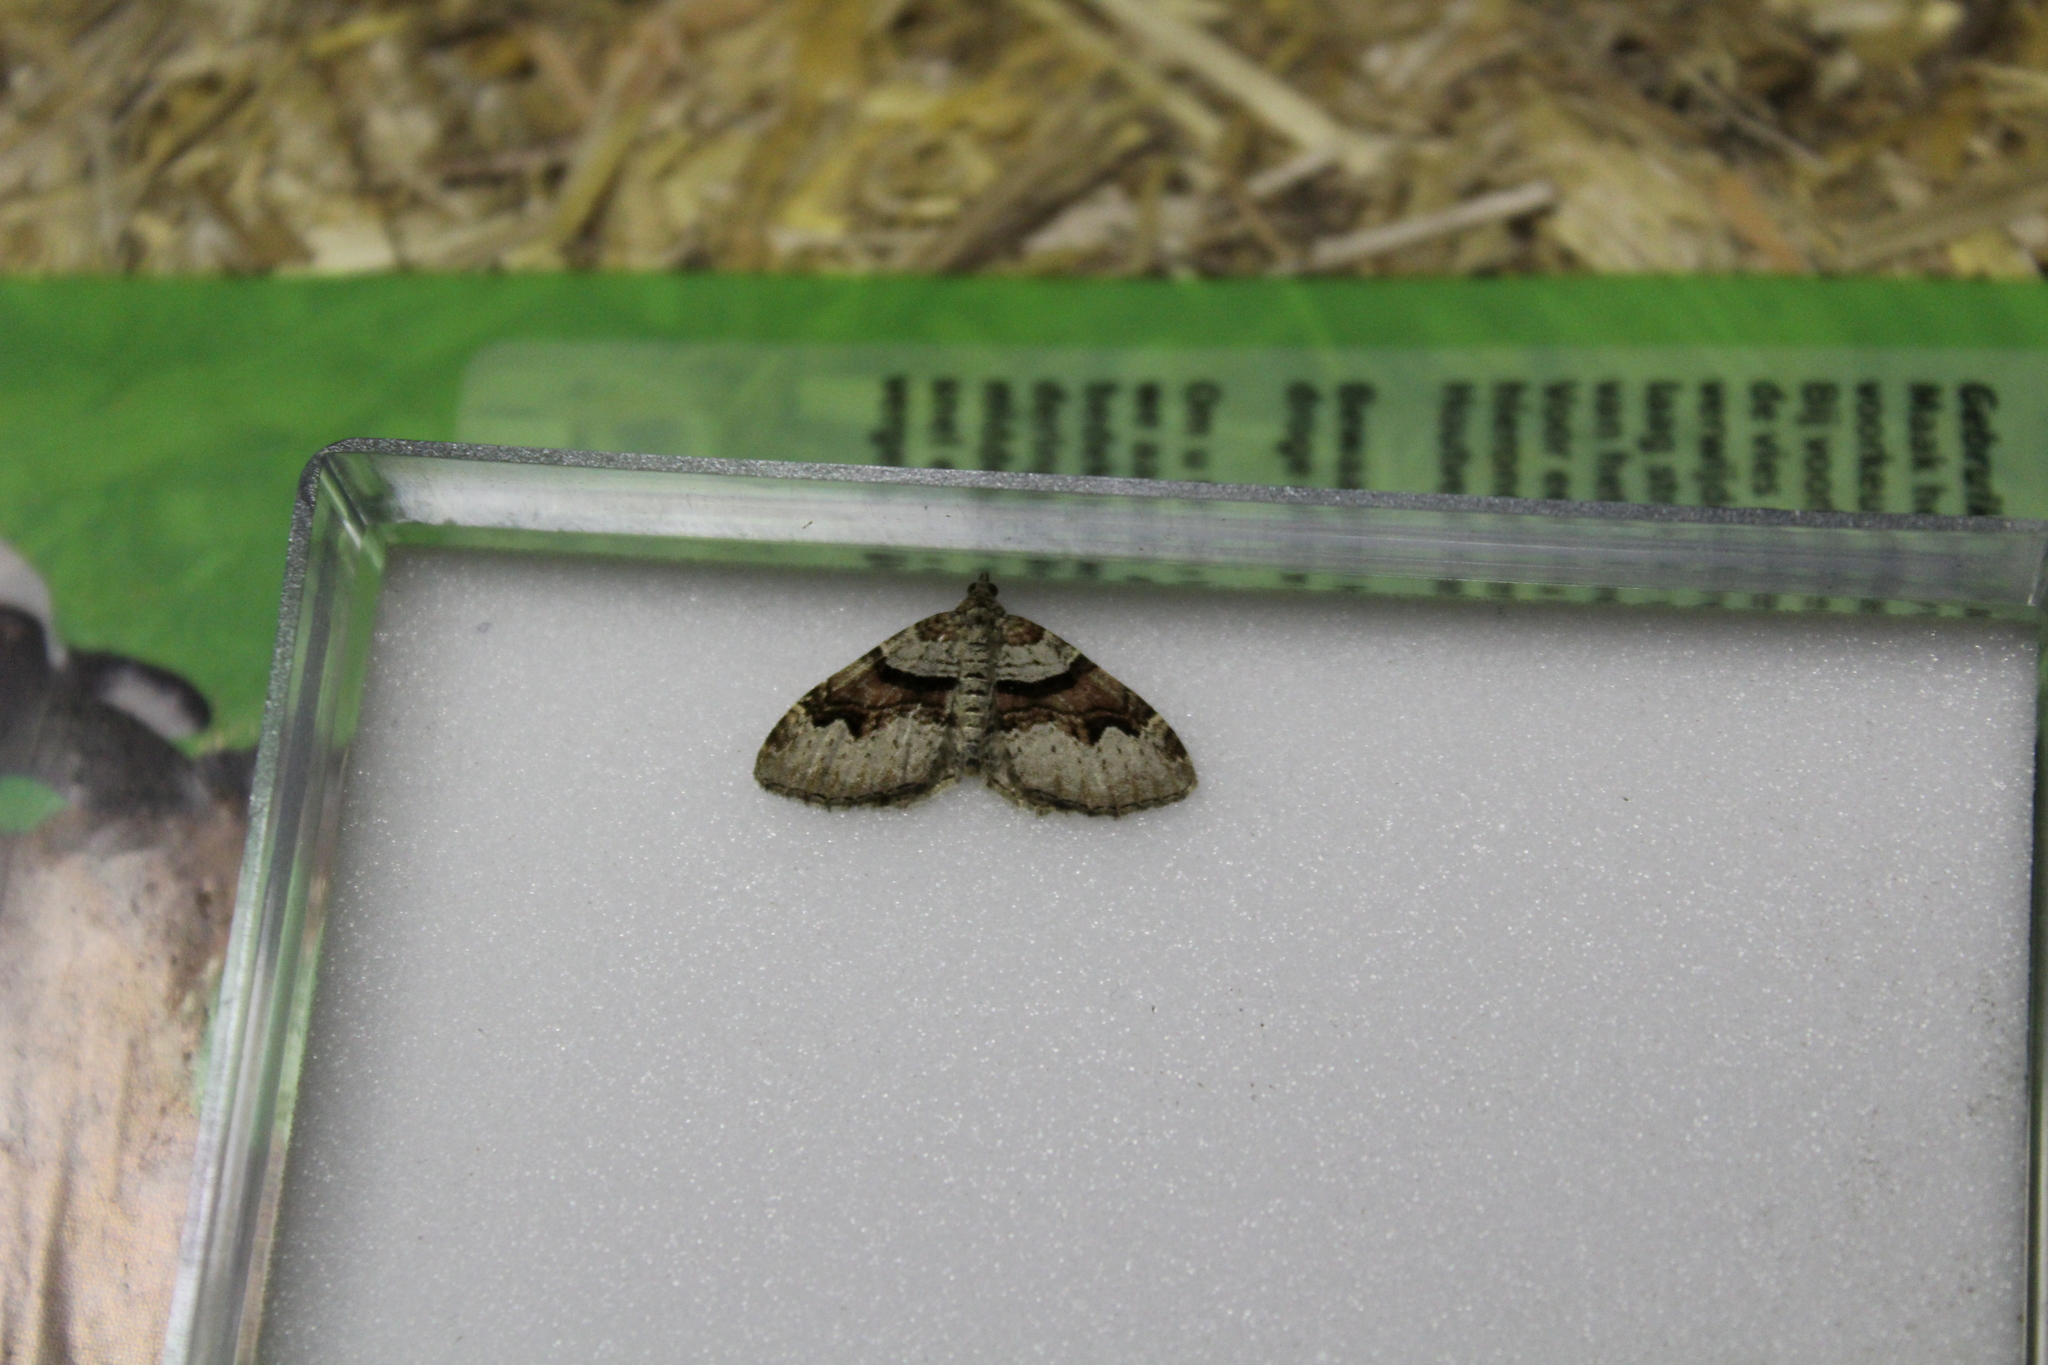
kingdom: Animalia
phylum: Arthropoda
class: Insecta
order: Lepidoptera
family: Geometridae
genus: Xanthorhoe
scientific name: Xanthorhoe designata
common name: Flame carpet
